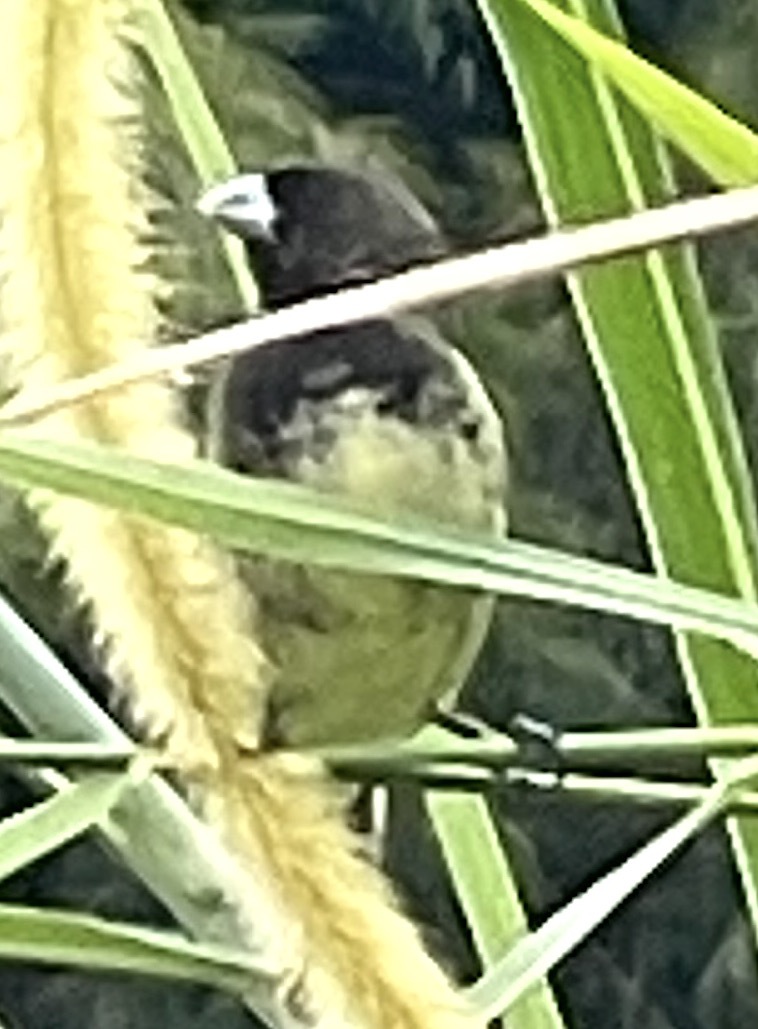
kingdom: Animalia
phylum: Chordata
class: Aves
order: Passeriformes
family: Thraupidae
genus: Sporophila
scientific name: Sporophila nigricollis
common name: Yellow-bellied seedeater
